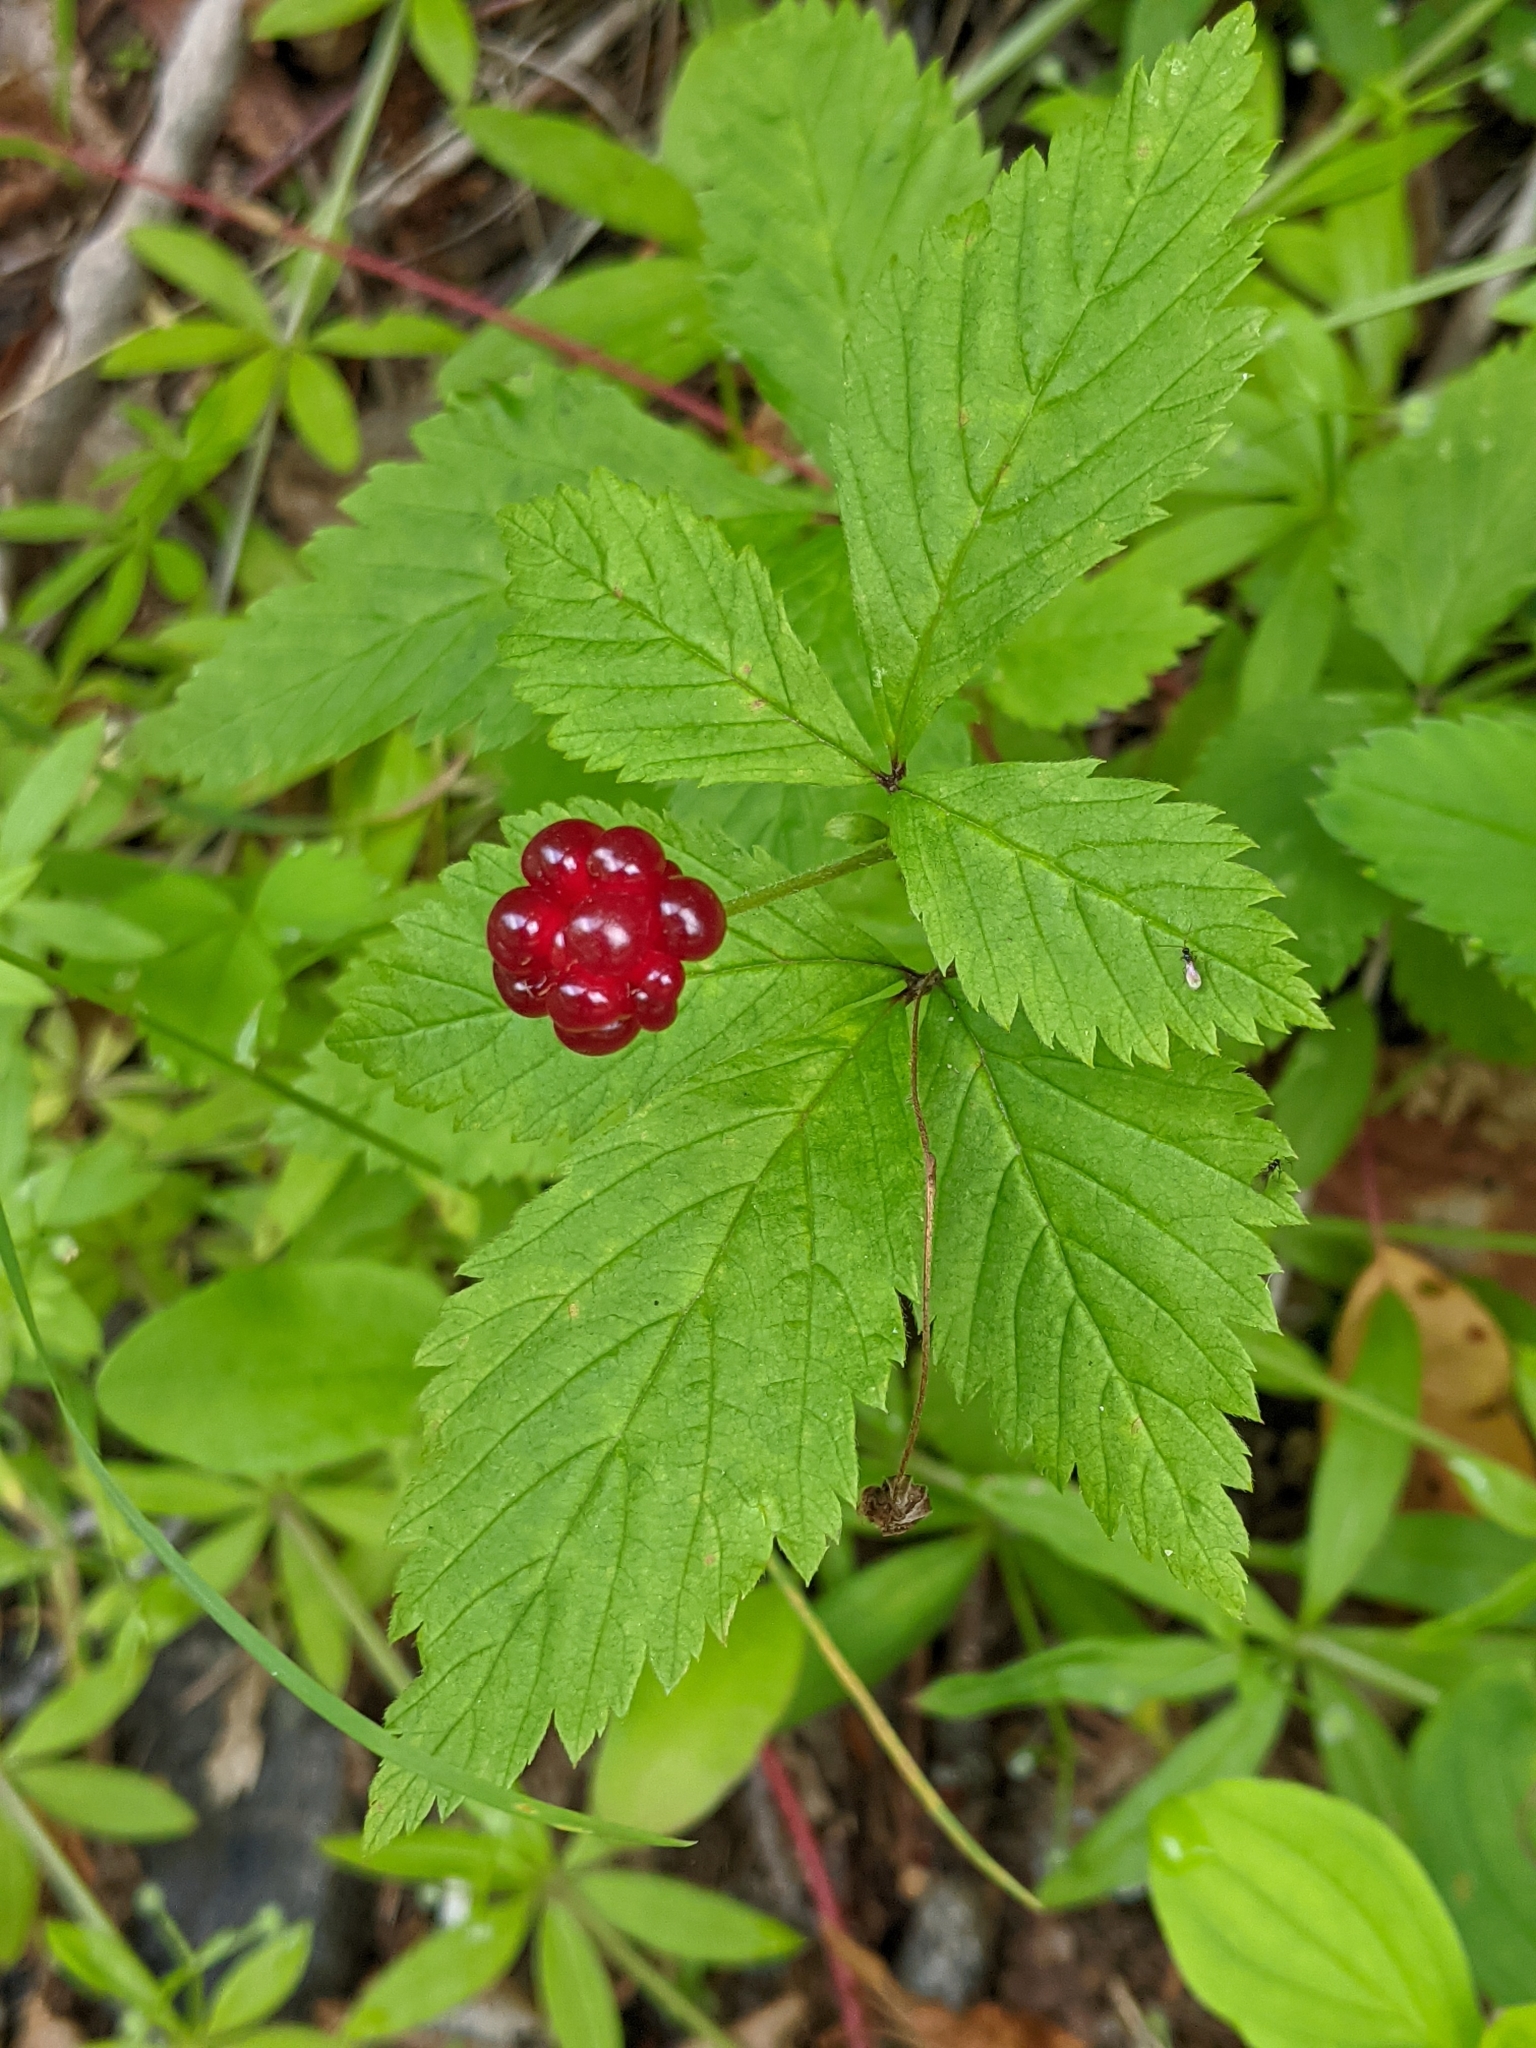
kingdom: Plantae
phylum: Tracheophyta
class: Magnoliopsida
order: Rosales
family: Rosaceae
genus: Rubus
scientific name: Rubus pubescens
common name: Dwarf raspberry
